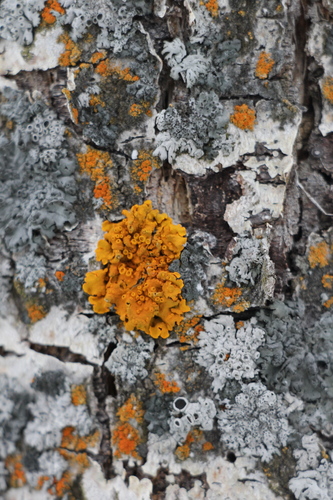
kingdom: Fungi
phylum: Ascomycota
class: Lecanoromycetes
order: Teloschistales
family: Teloschistaceae
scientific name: Teloschistaceae
